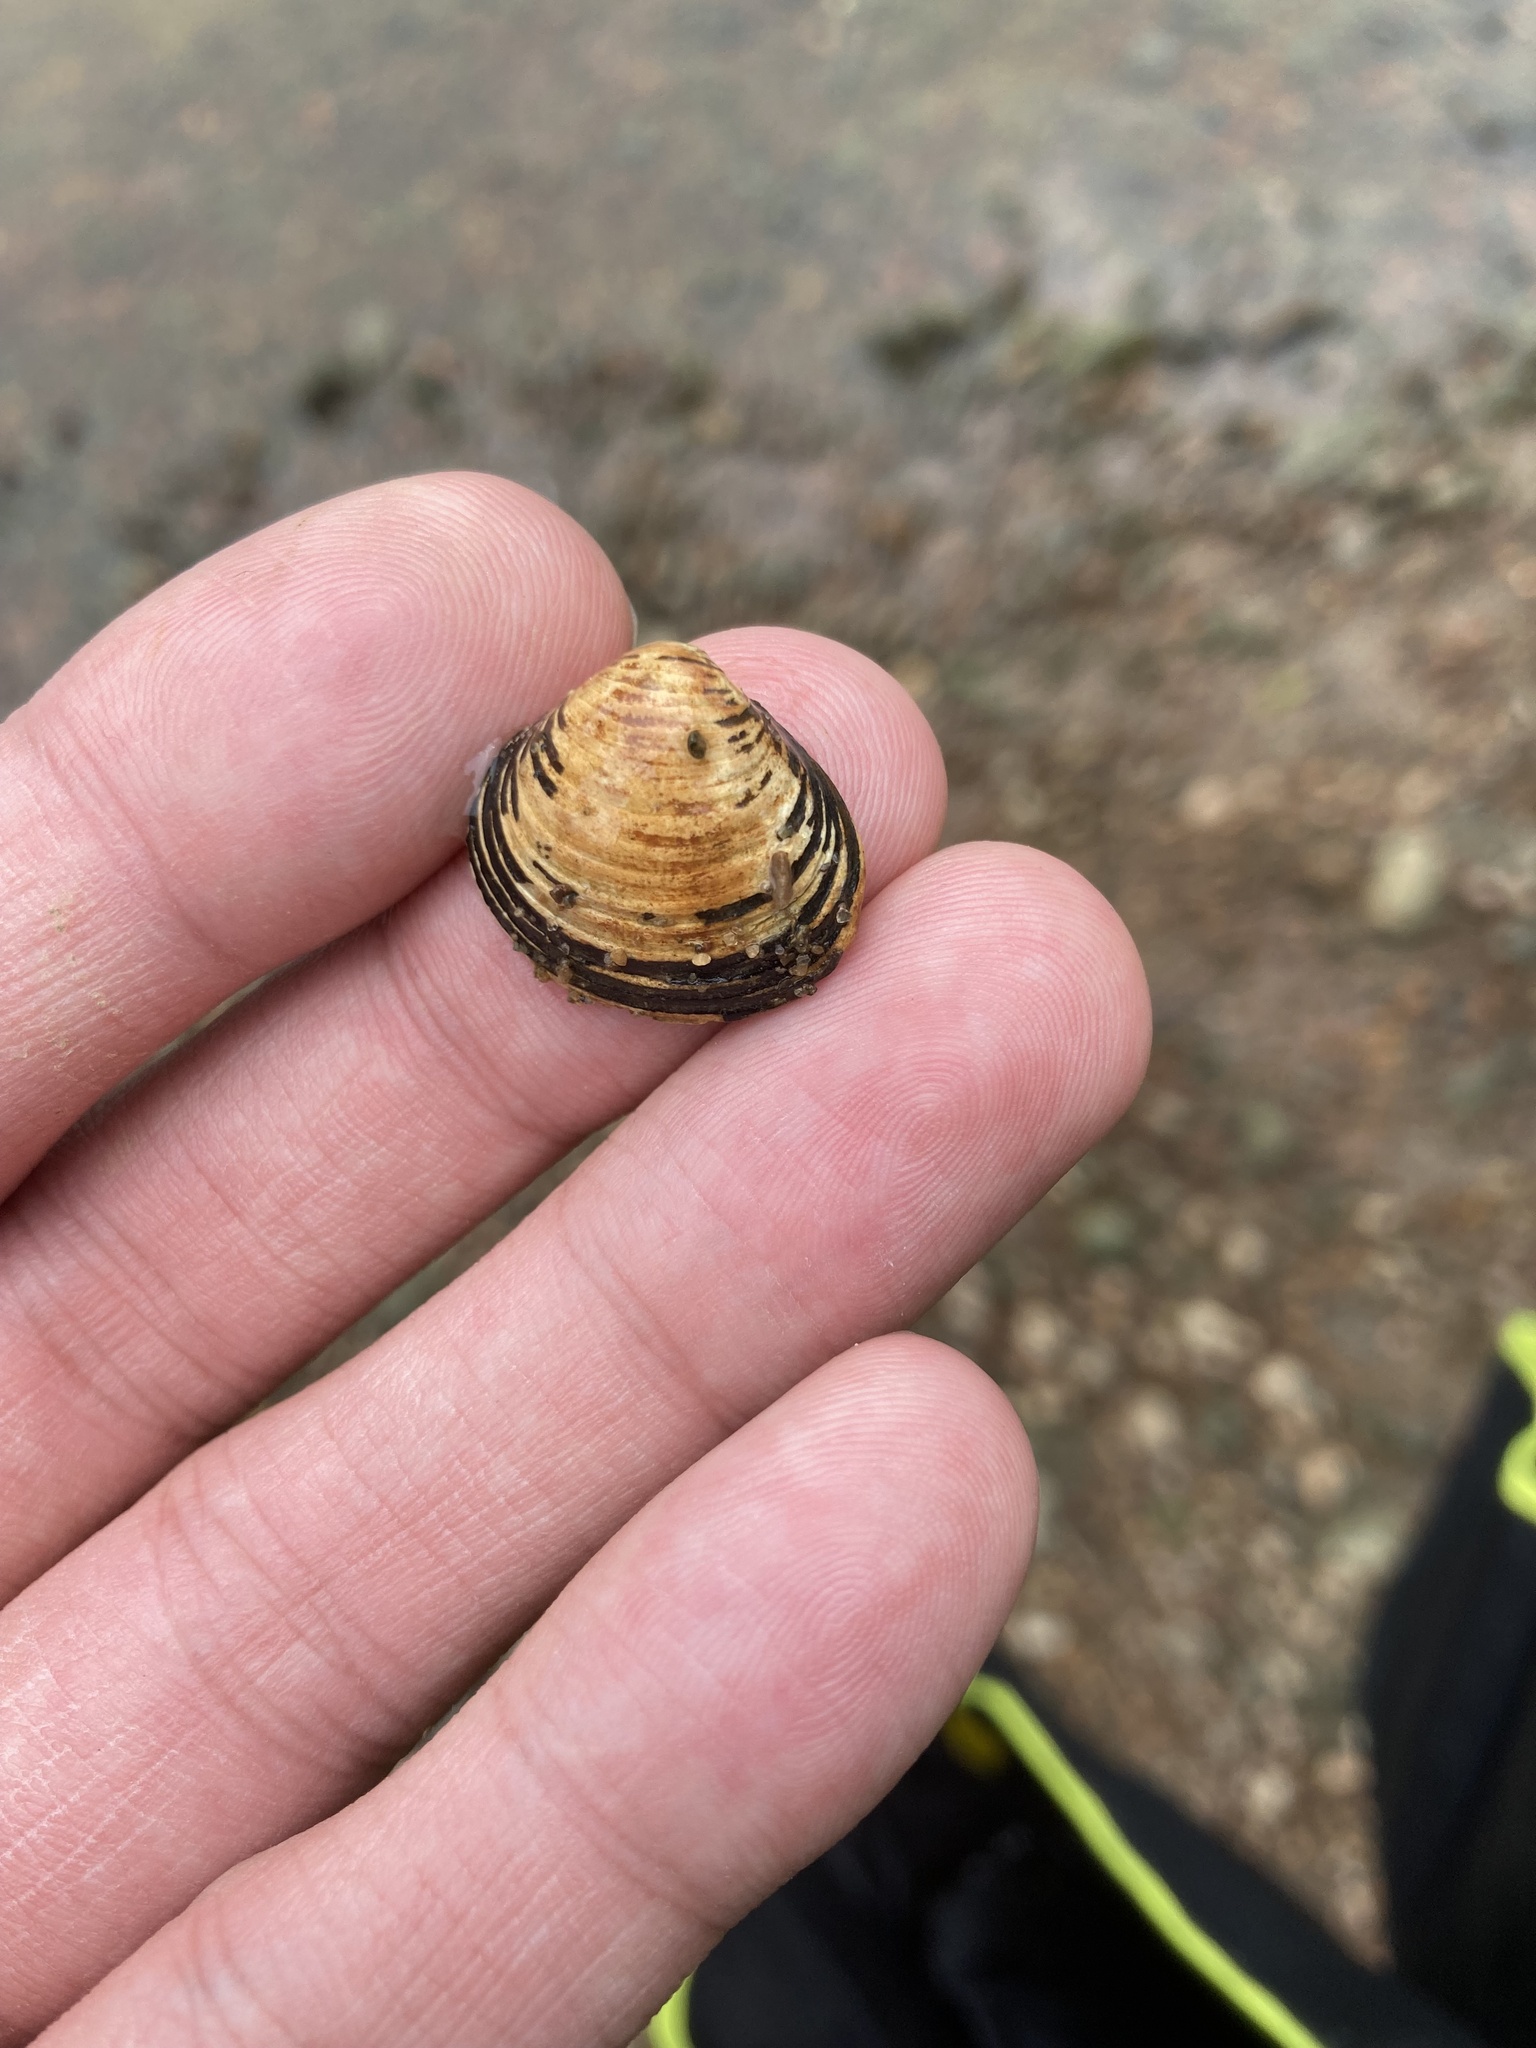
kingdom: Animalia
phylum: Mollusca
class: Bivalvia
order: Venerida
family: Cyrenidae
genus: Corbicula
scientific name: Corbicula fluminea
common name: Asian clam
